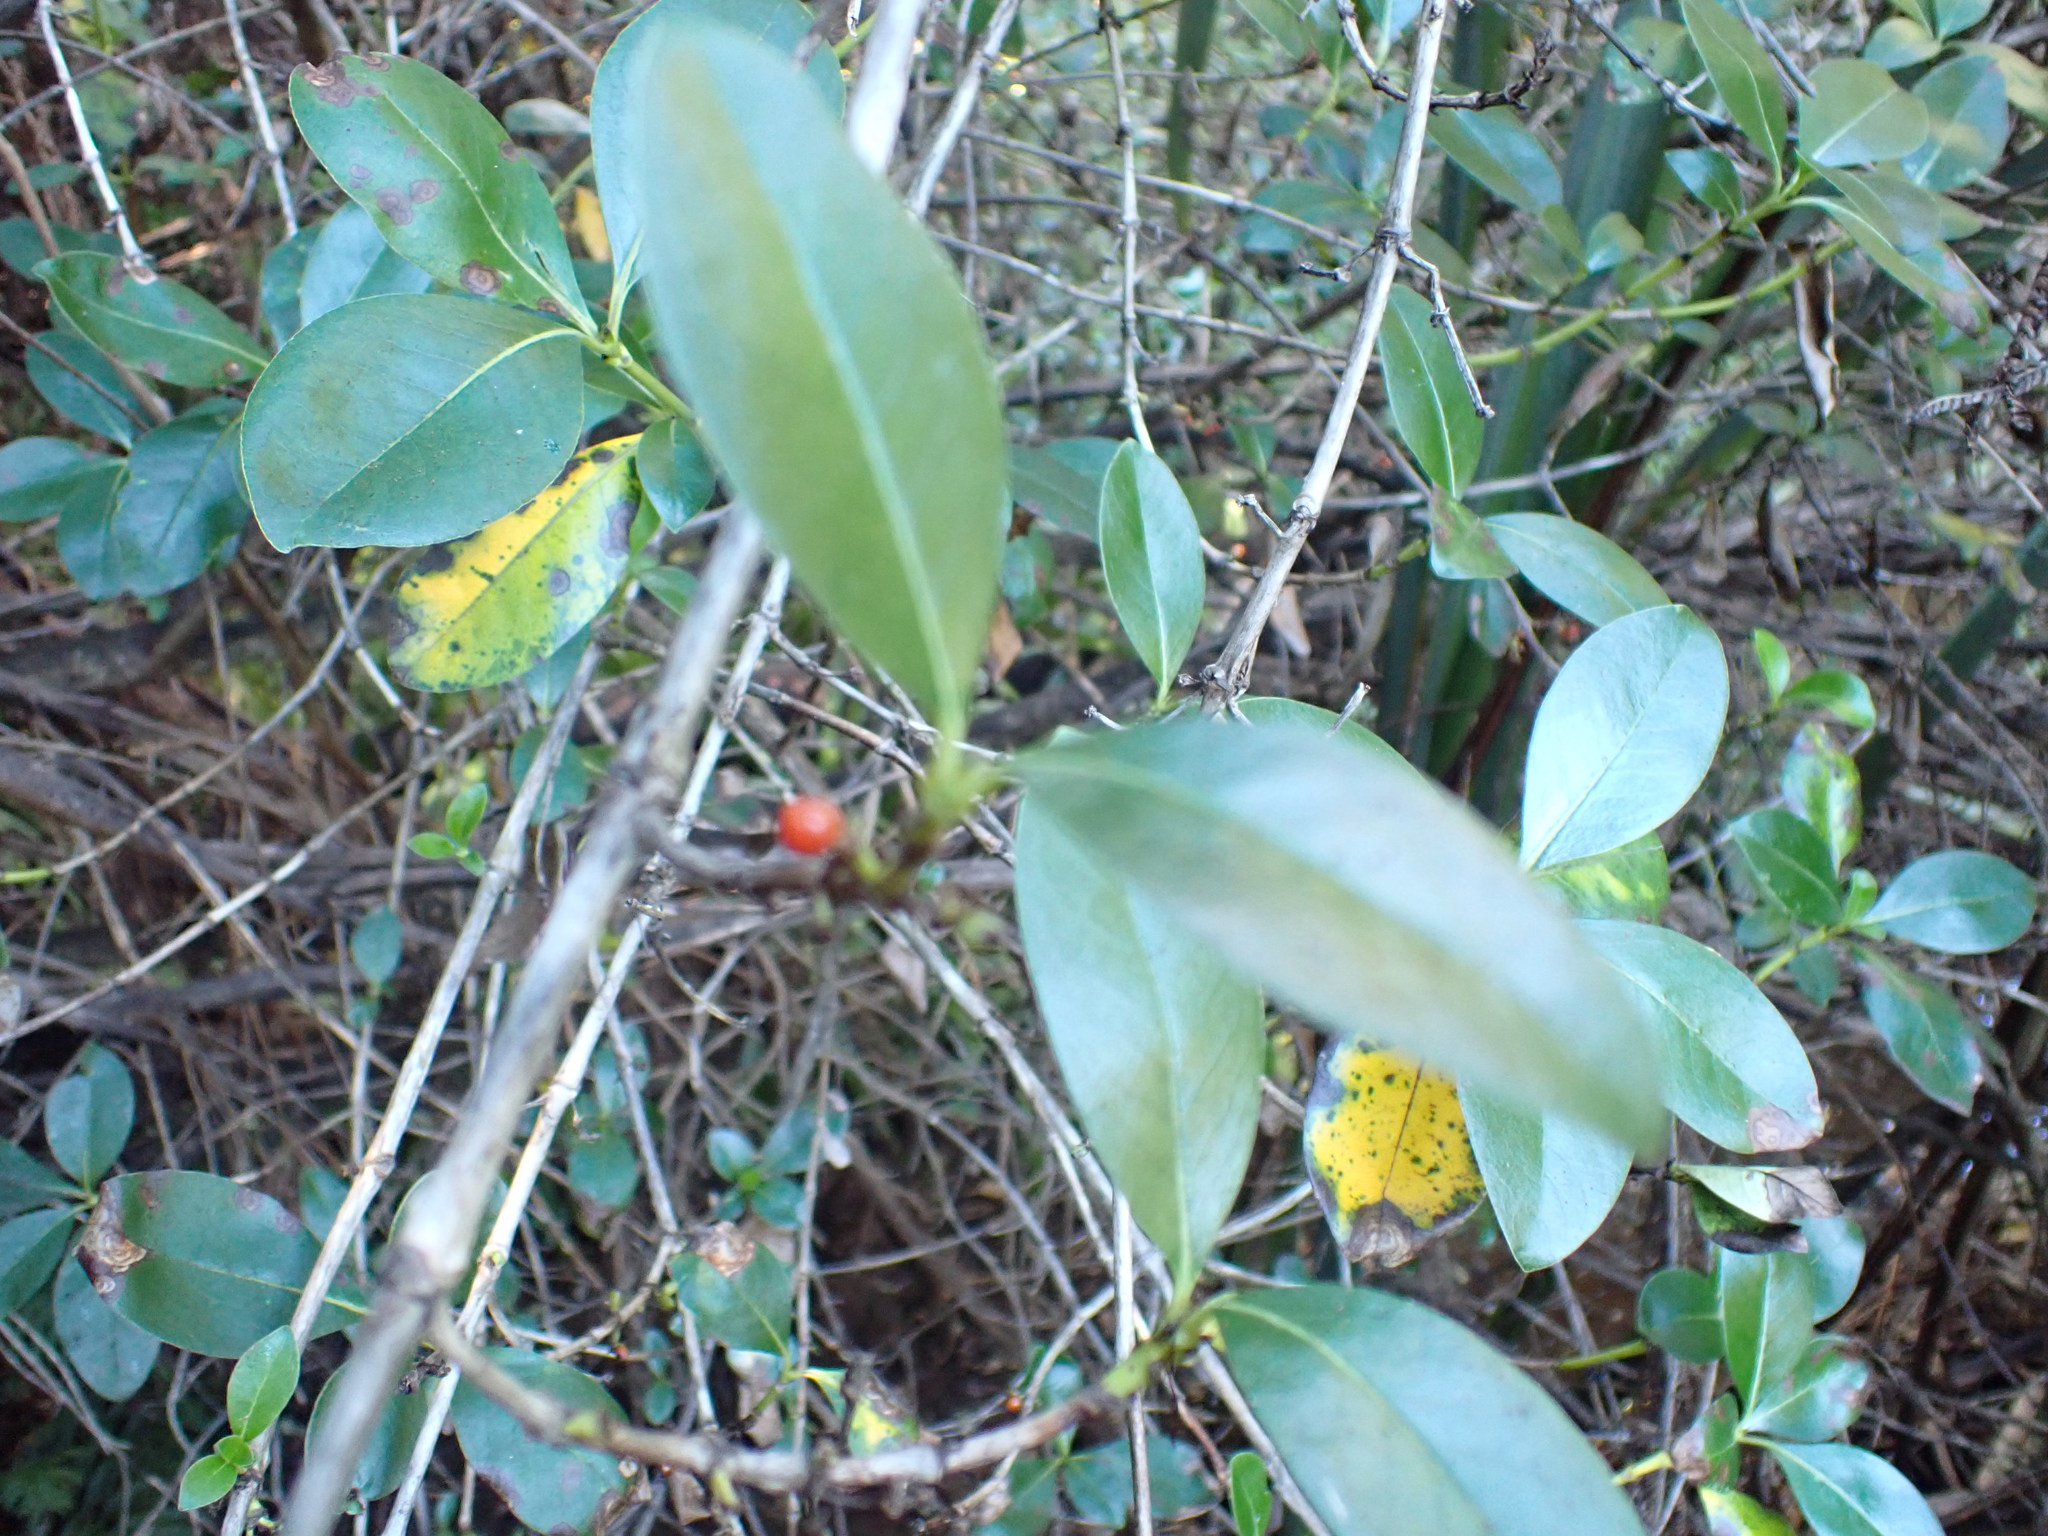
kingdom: Plantae
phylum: Tracheophyta
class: Magnoliopsida
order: Gentianales
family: Rubiaceae
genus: Coprosma
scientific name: Coprosma robusta
